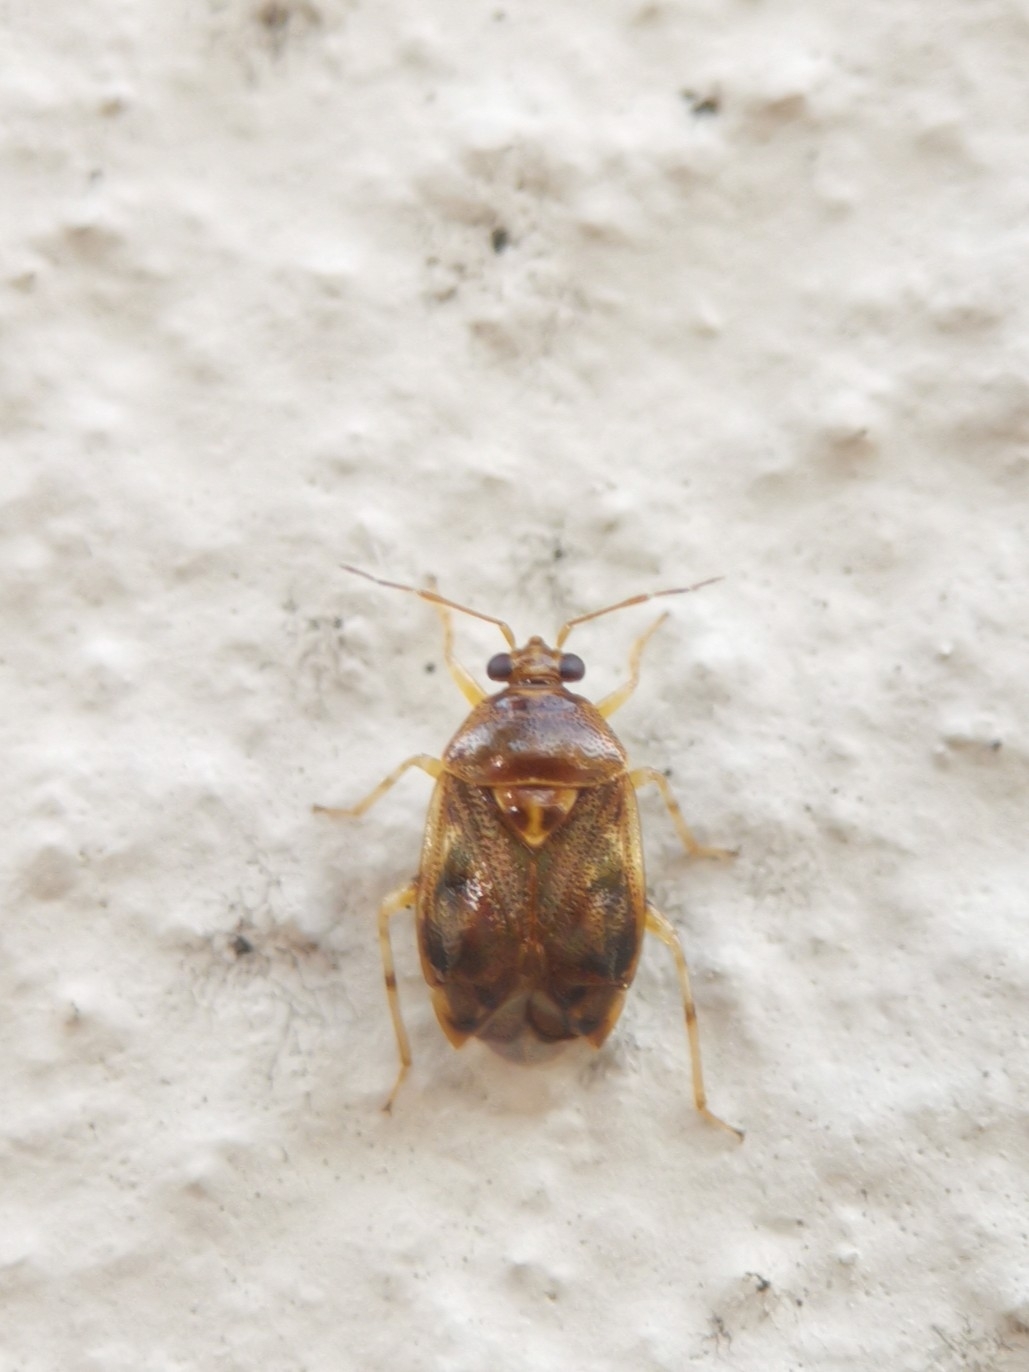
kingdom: Animalia
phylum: Arthropoda
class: Insecta
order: Hemiptera
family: Miridae
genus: Deraeocoris
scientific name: Deraeocoris lutescens
